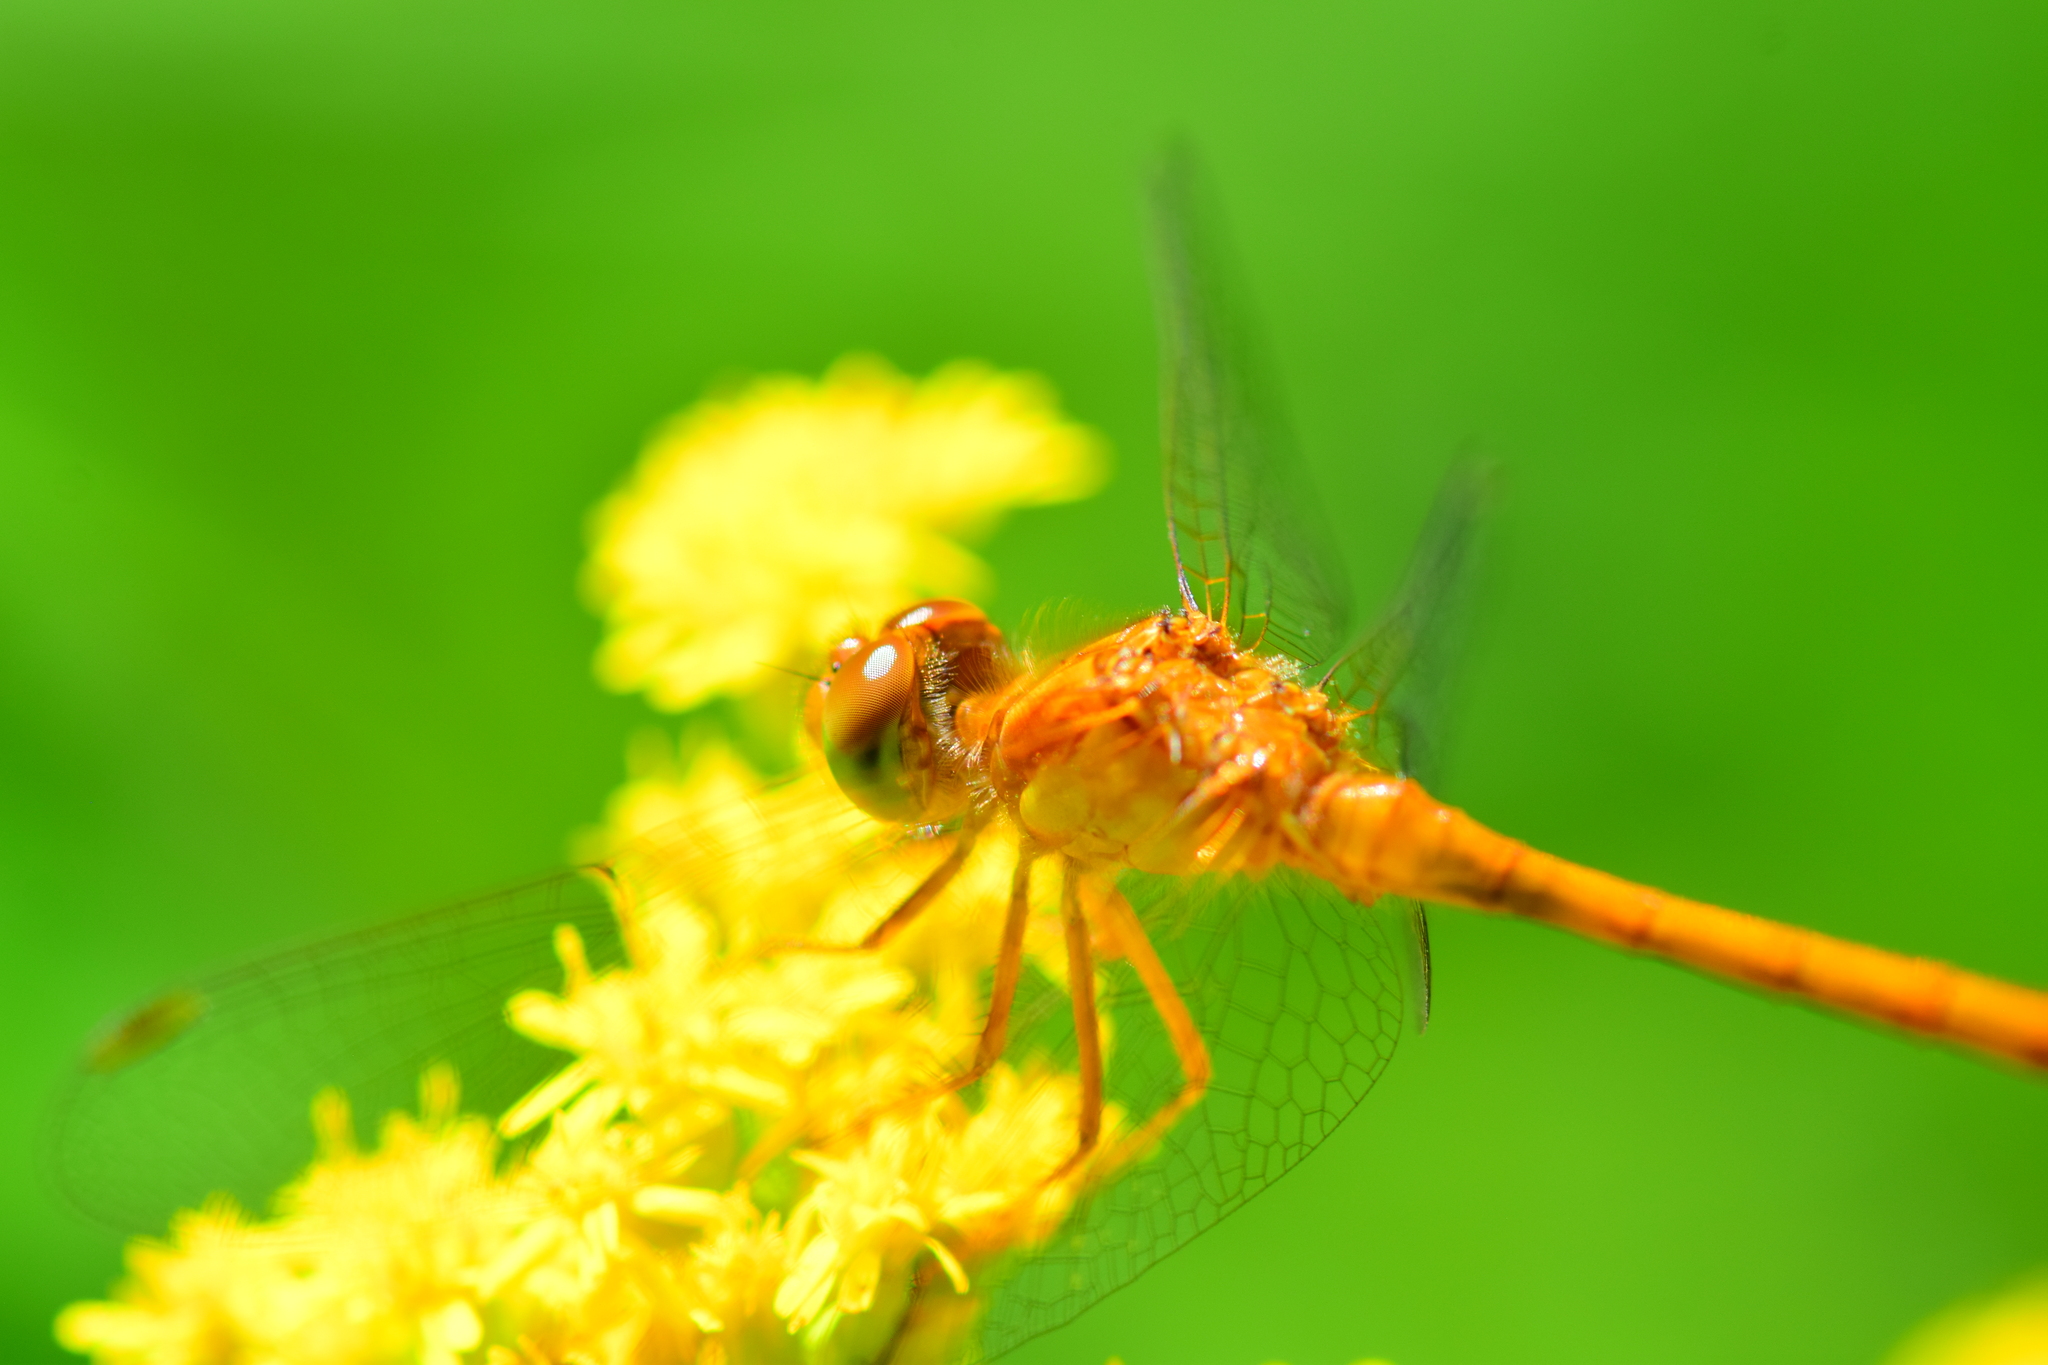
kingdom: Animalia
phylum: Arthropoda
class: Insecta
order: Odonata
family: Libellulidae
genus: Sympetrum
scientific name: Sympetrum vicinum
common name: Autumn meadowhawk
